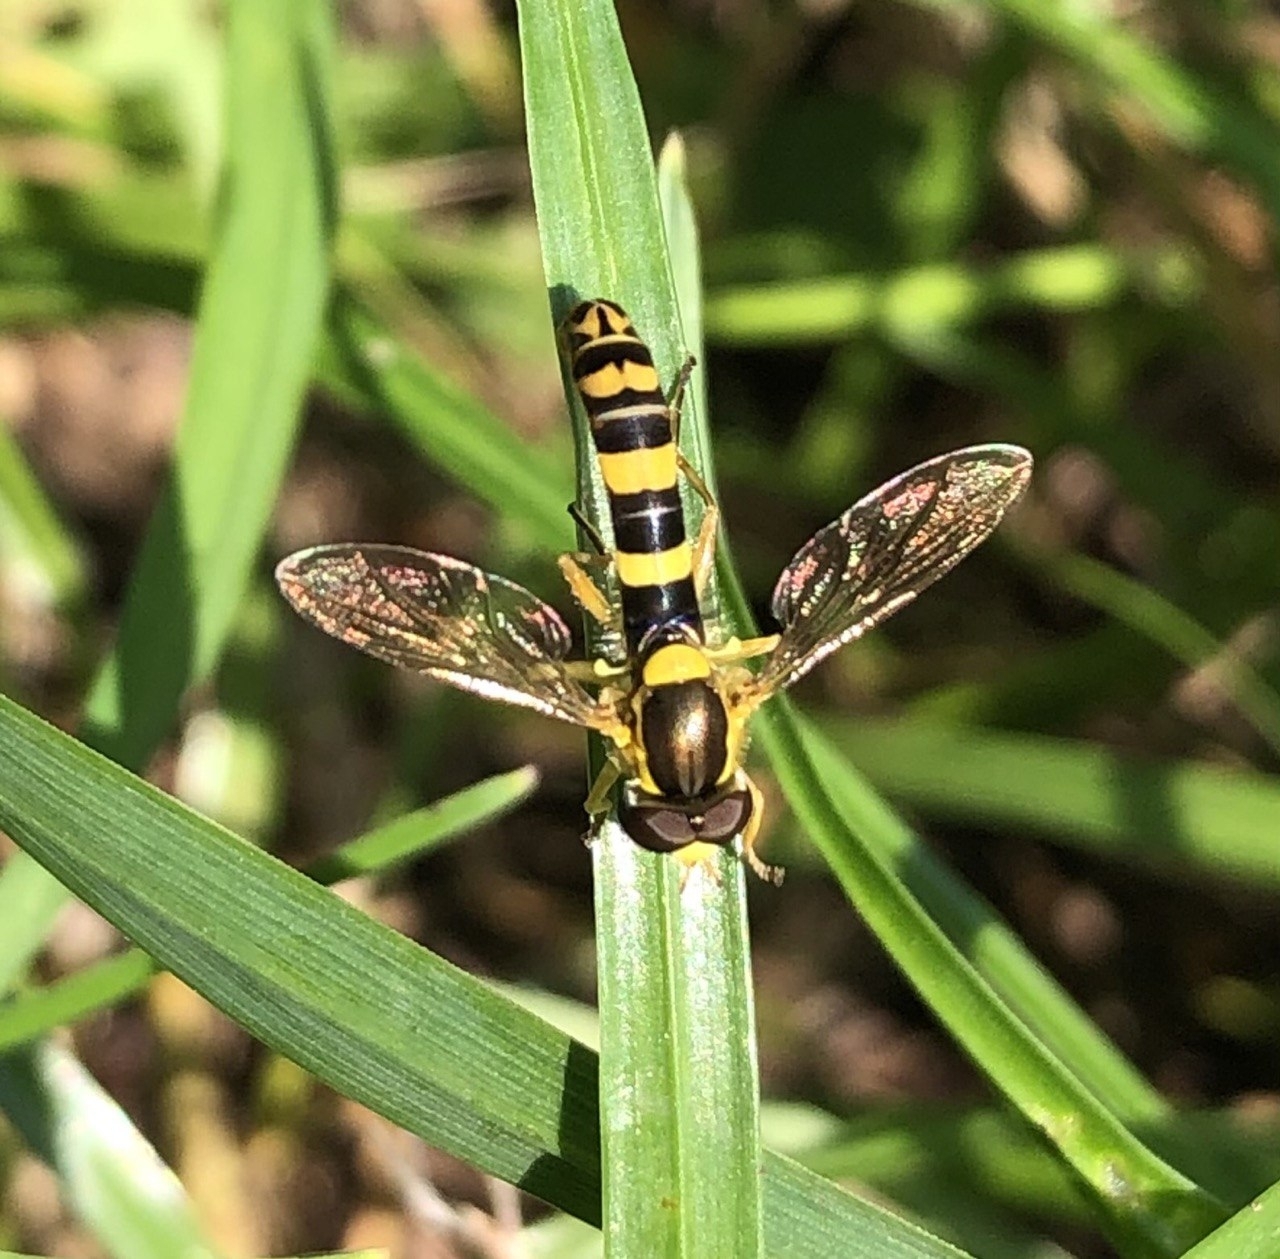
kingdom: Animalia
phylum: Arthropoda
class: Insecta
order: Diptera
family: Syrphidae
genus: Sphaerophoria
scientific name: Sphaerophoria scripta
